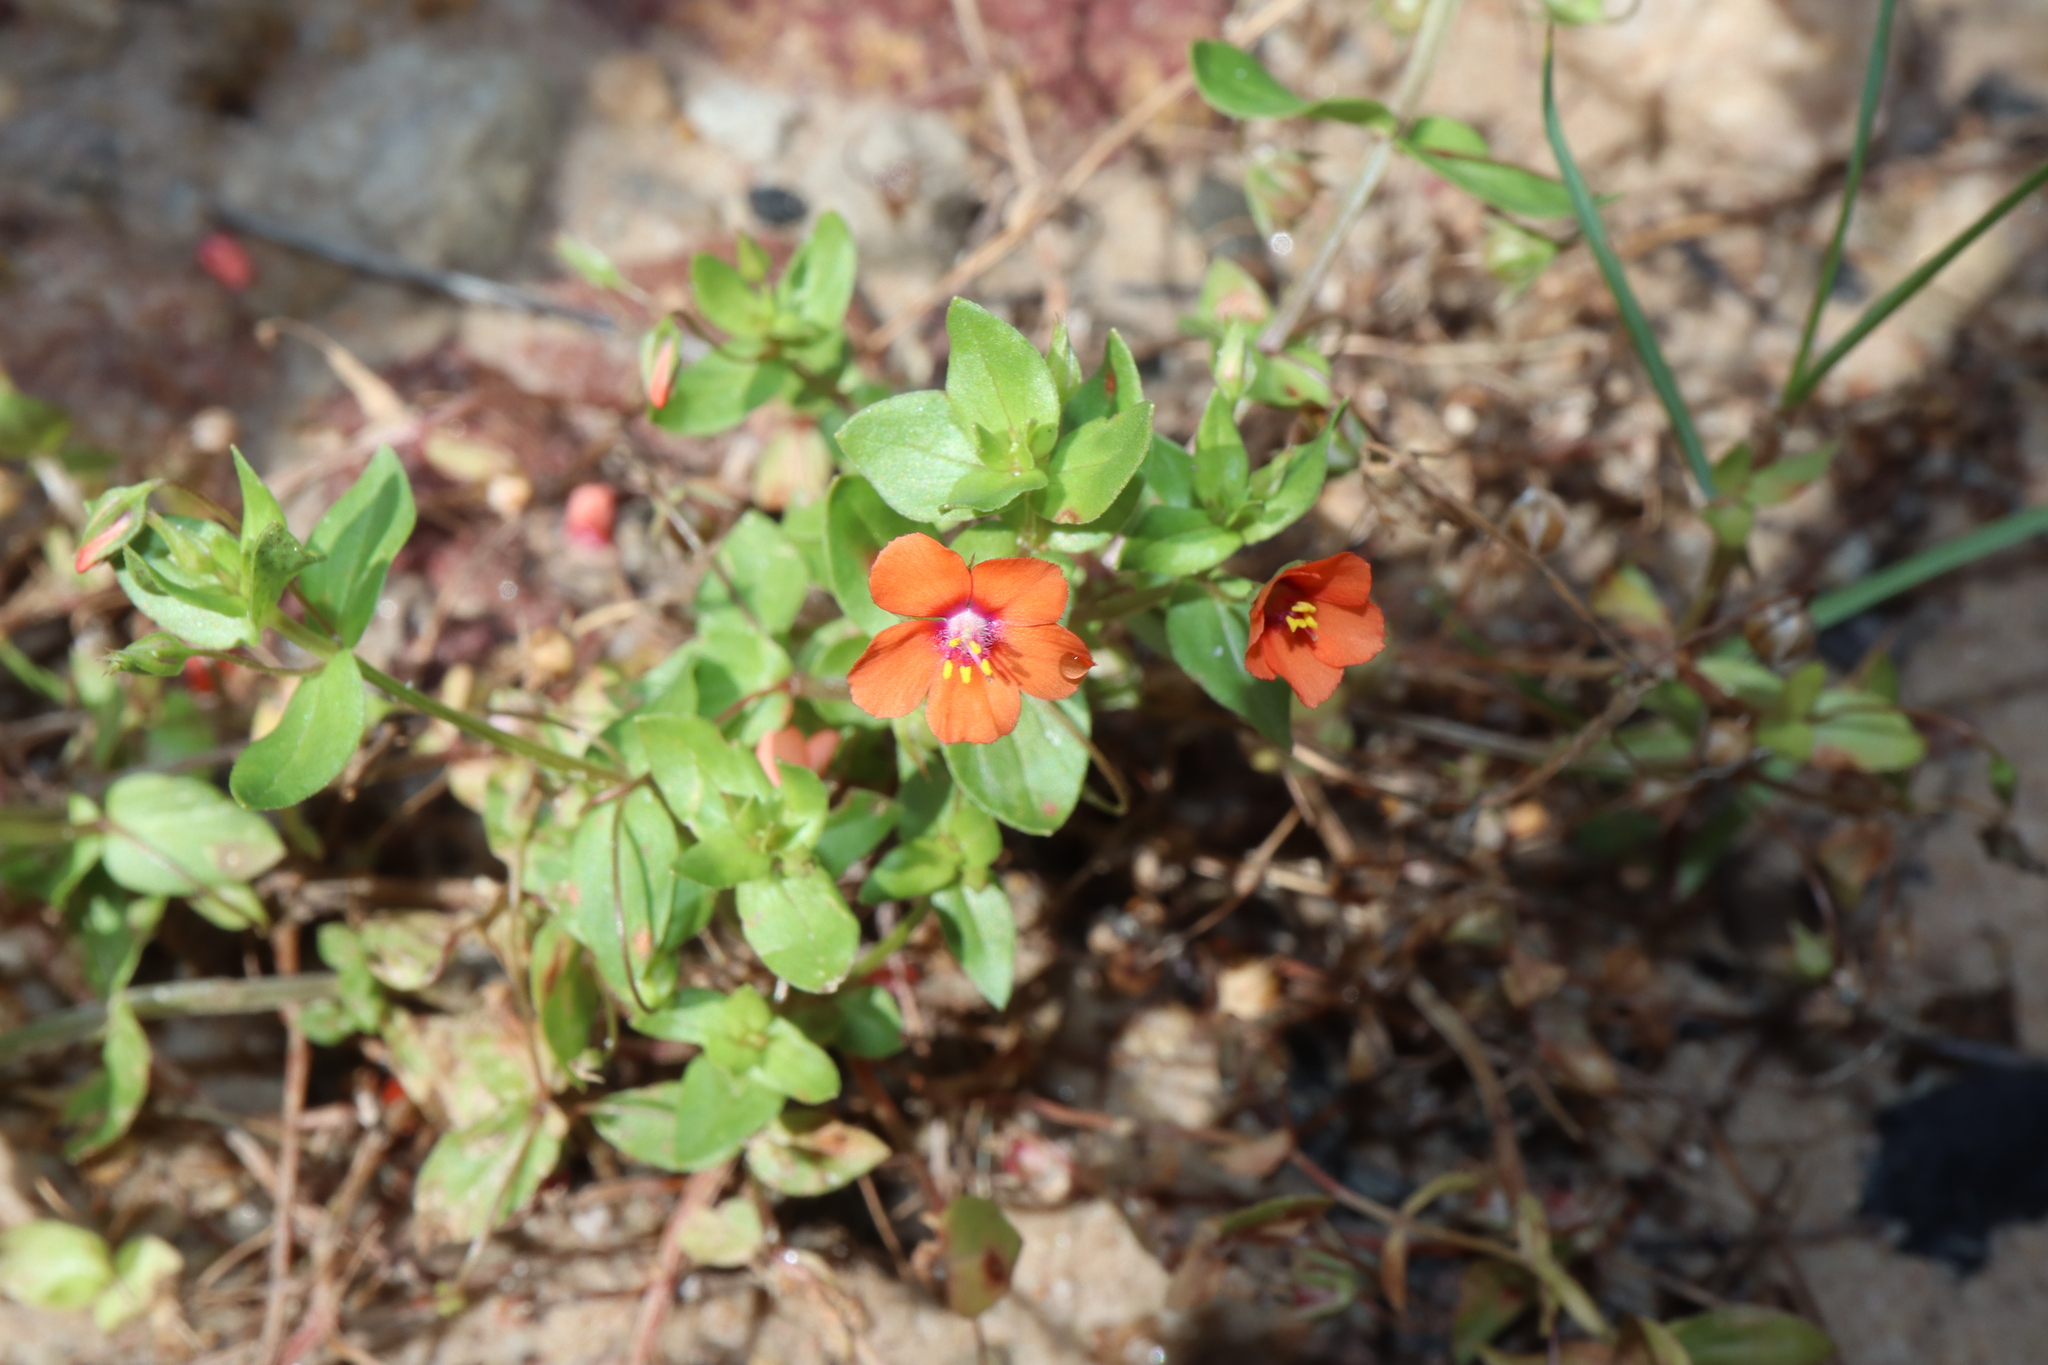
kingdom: Plantae
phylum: Tracheophyta
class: Magnoliopsida
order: Ericales
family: Primulaceae
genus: Lysimachia
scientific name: Lysimachia arvensis
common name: Scarlet pimpernel
